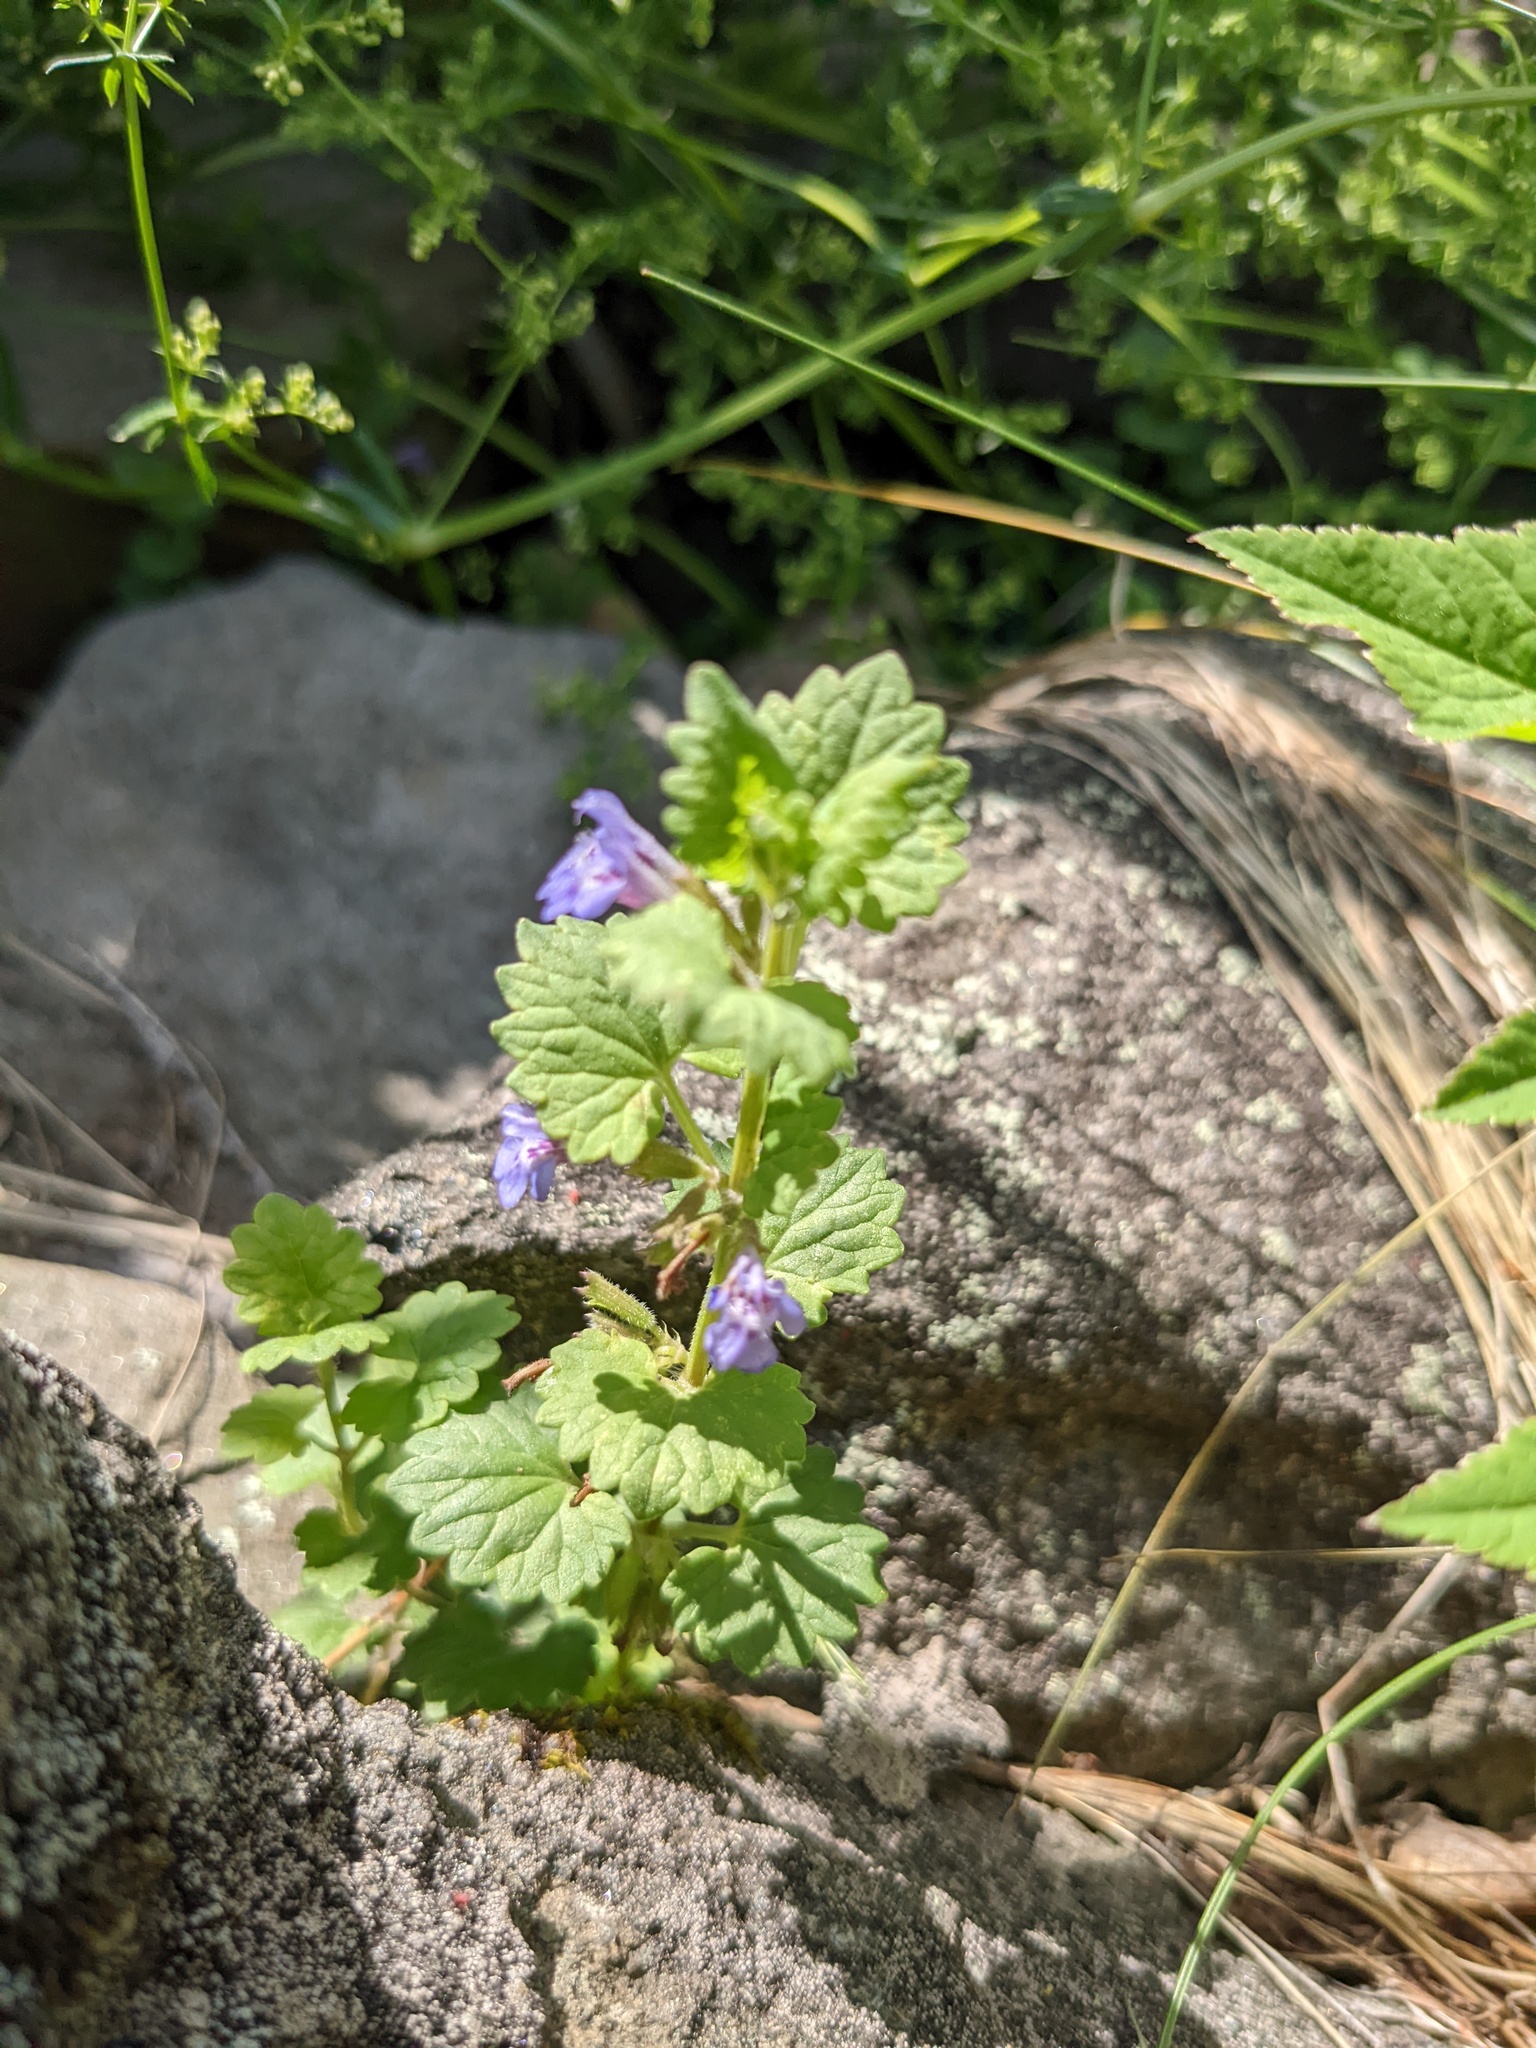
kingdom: Plantae
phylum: Tracheophyta
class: Magnoliopsida
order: Lamiales
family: Lamiaceae
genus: Glechoma
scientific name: Glechoma hederacea
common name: Ground ivy
